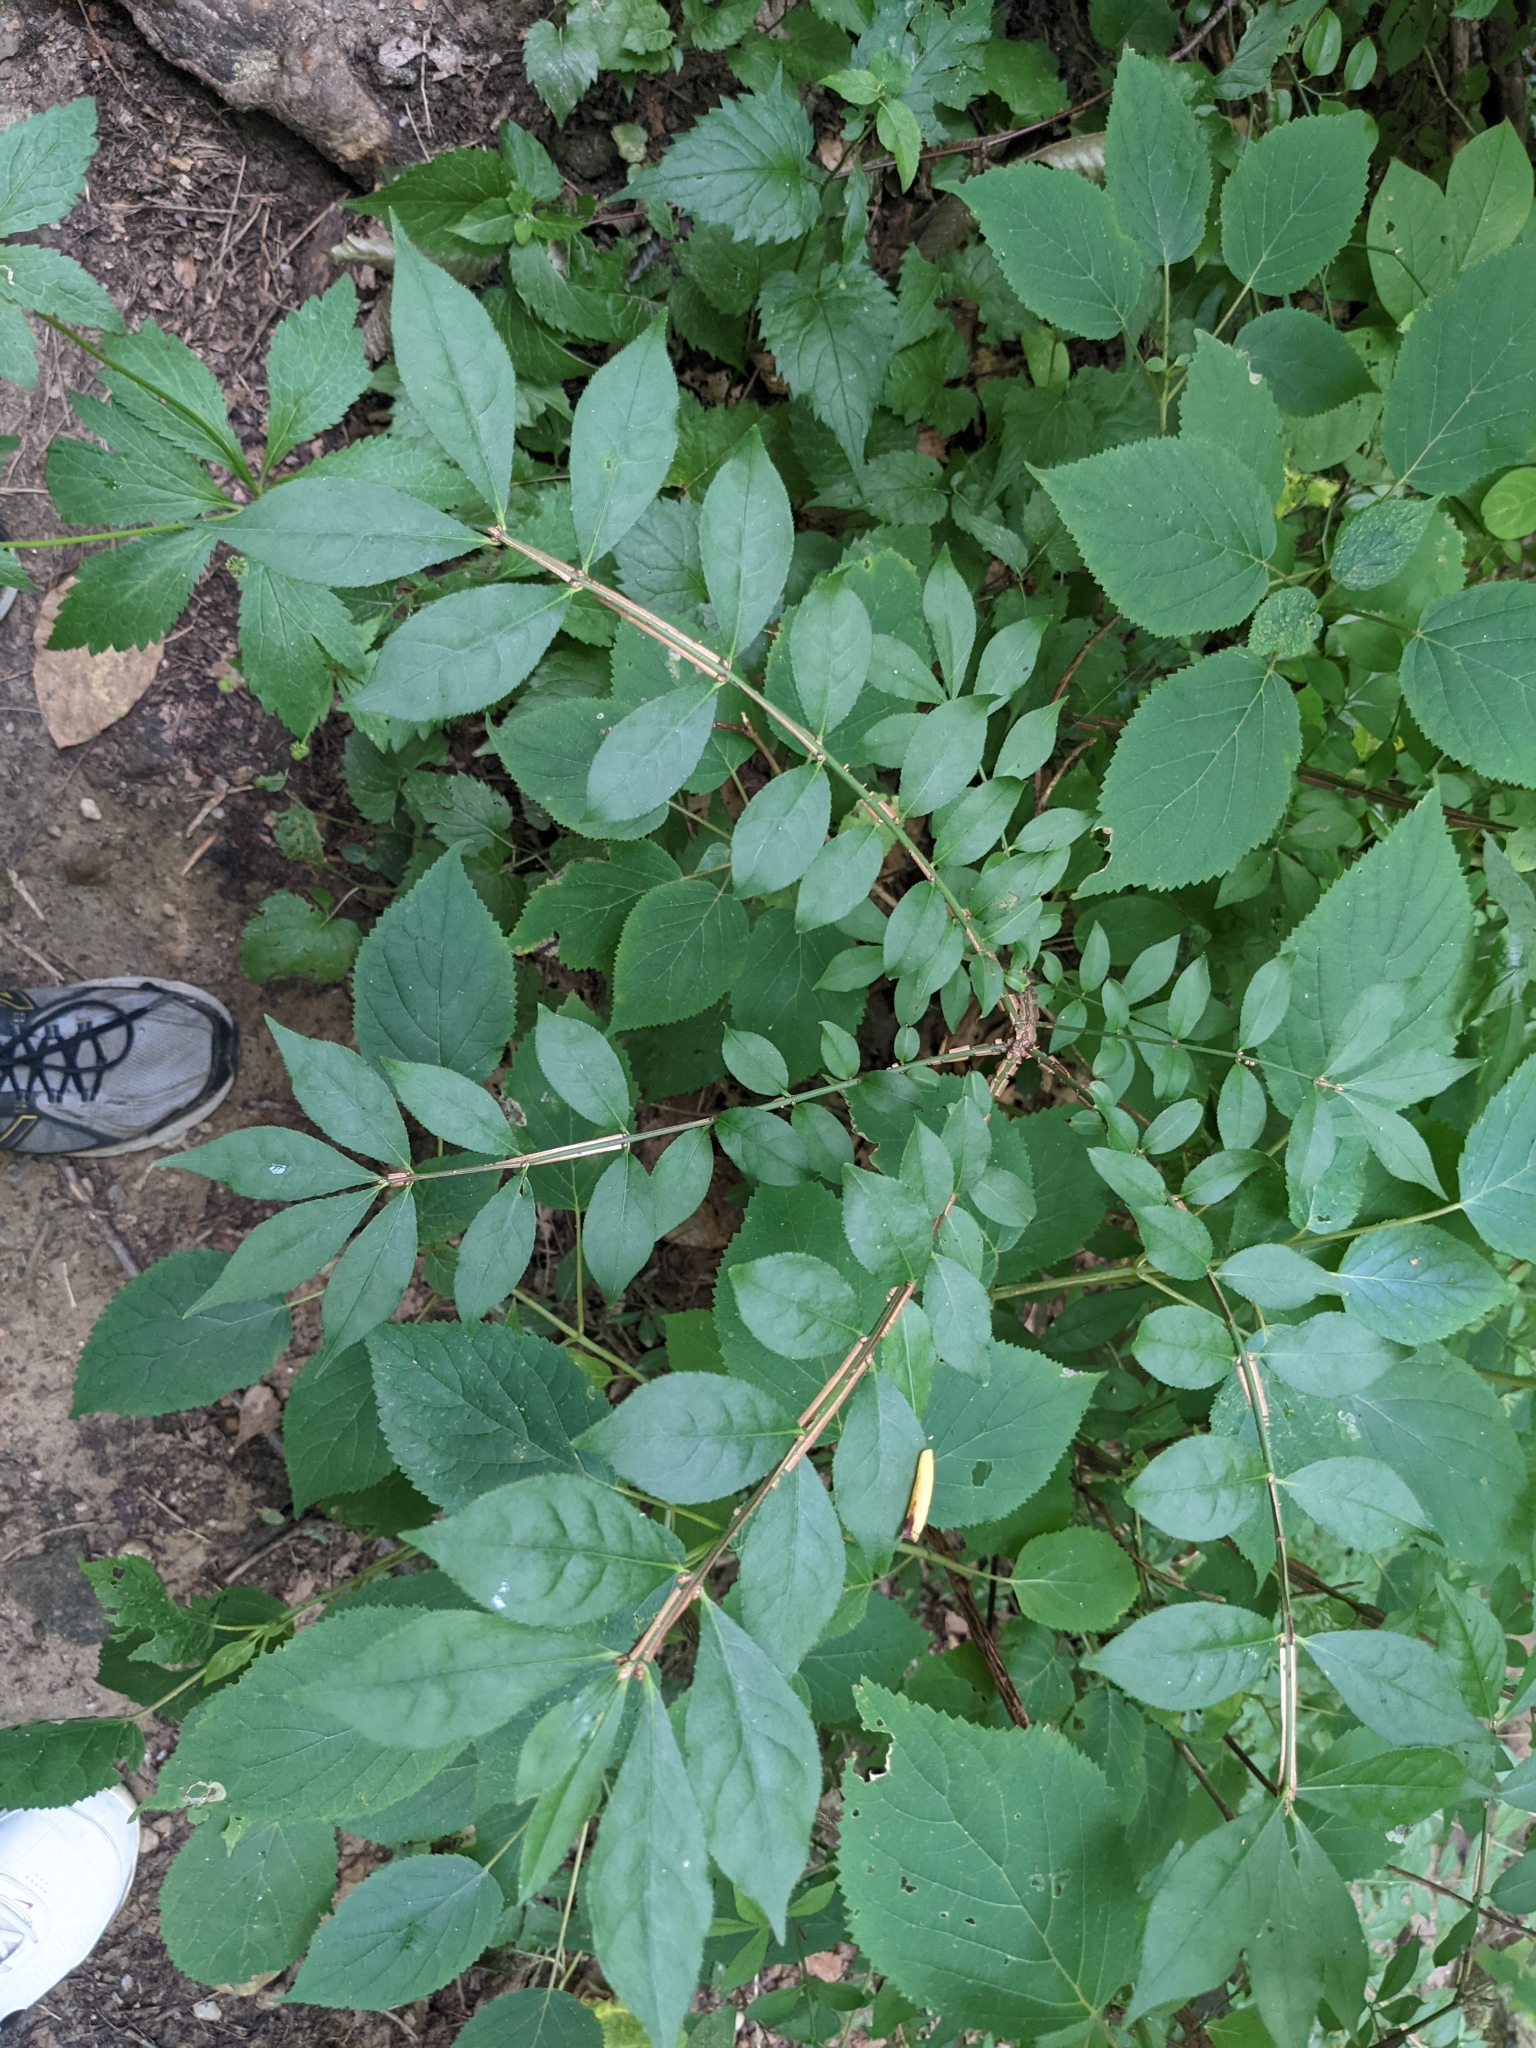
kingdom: Plantae
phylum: Tracheophyta
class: Magnoliopsida
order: Celastrales
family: Celastraceae
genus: Euonymus
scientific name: Euonymus alatus
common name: Winged euonymus
